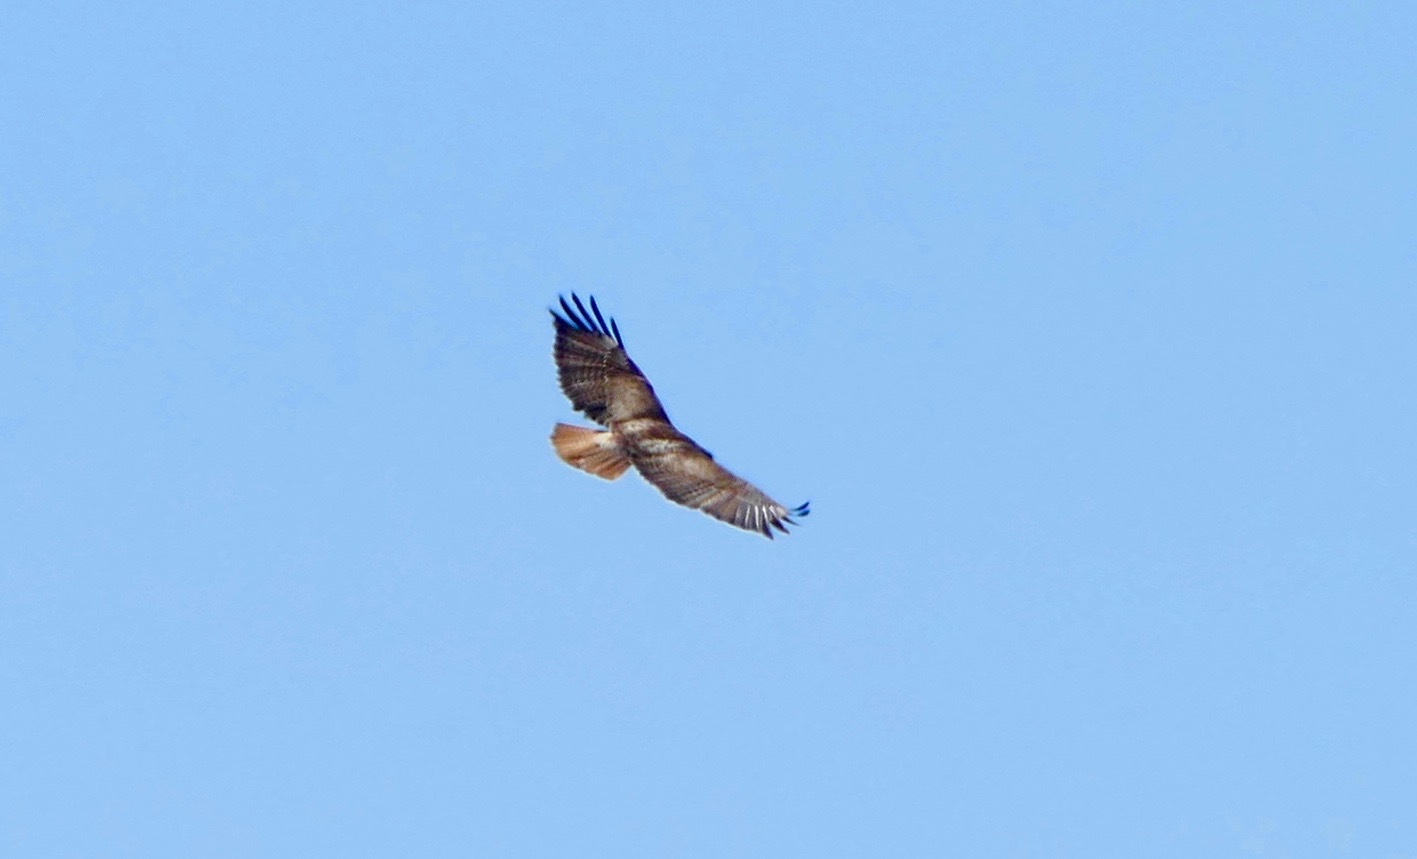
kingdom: Animalia
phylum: Chordata
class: Aves
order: Accipitriformes
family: Accipitridae
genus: Buteo
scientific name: Buteo jamaicensis
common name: Red-tailed hawk
